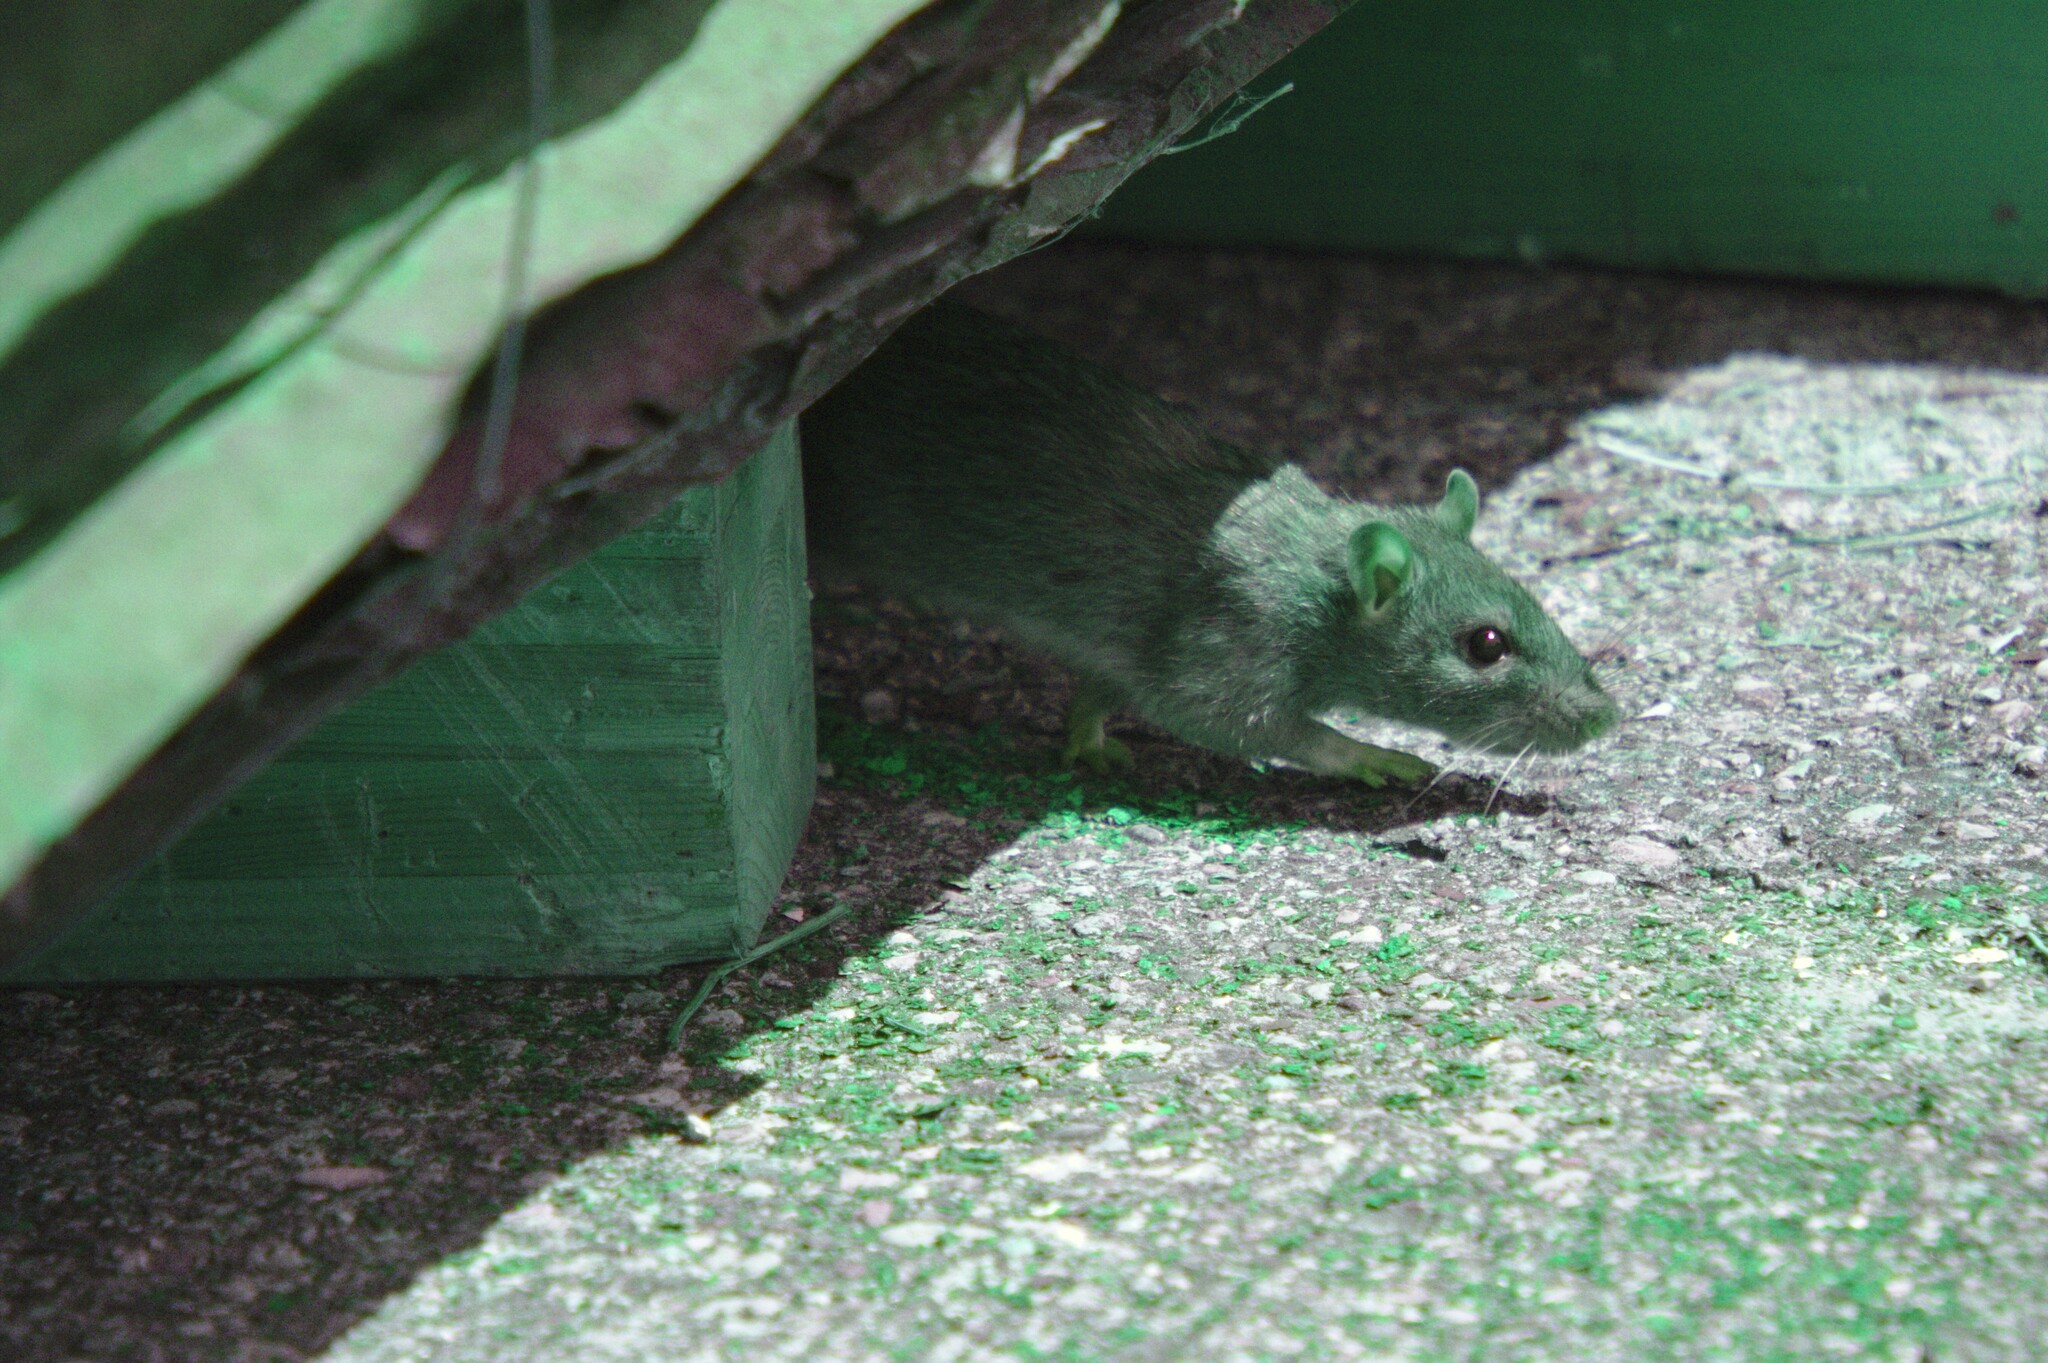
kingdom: Animalia
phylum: Chordata
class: Mammalia
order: Rodentia
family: Muridae
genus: Rattus
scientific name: Rattus norvegicus
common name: Brown rat
